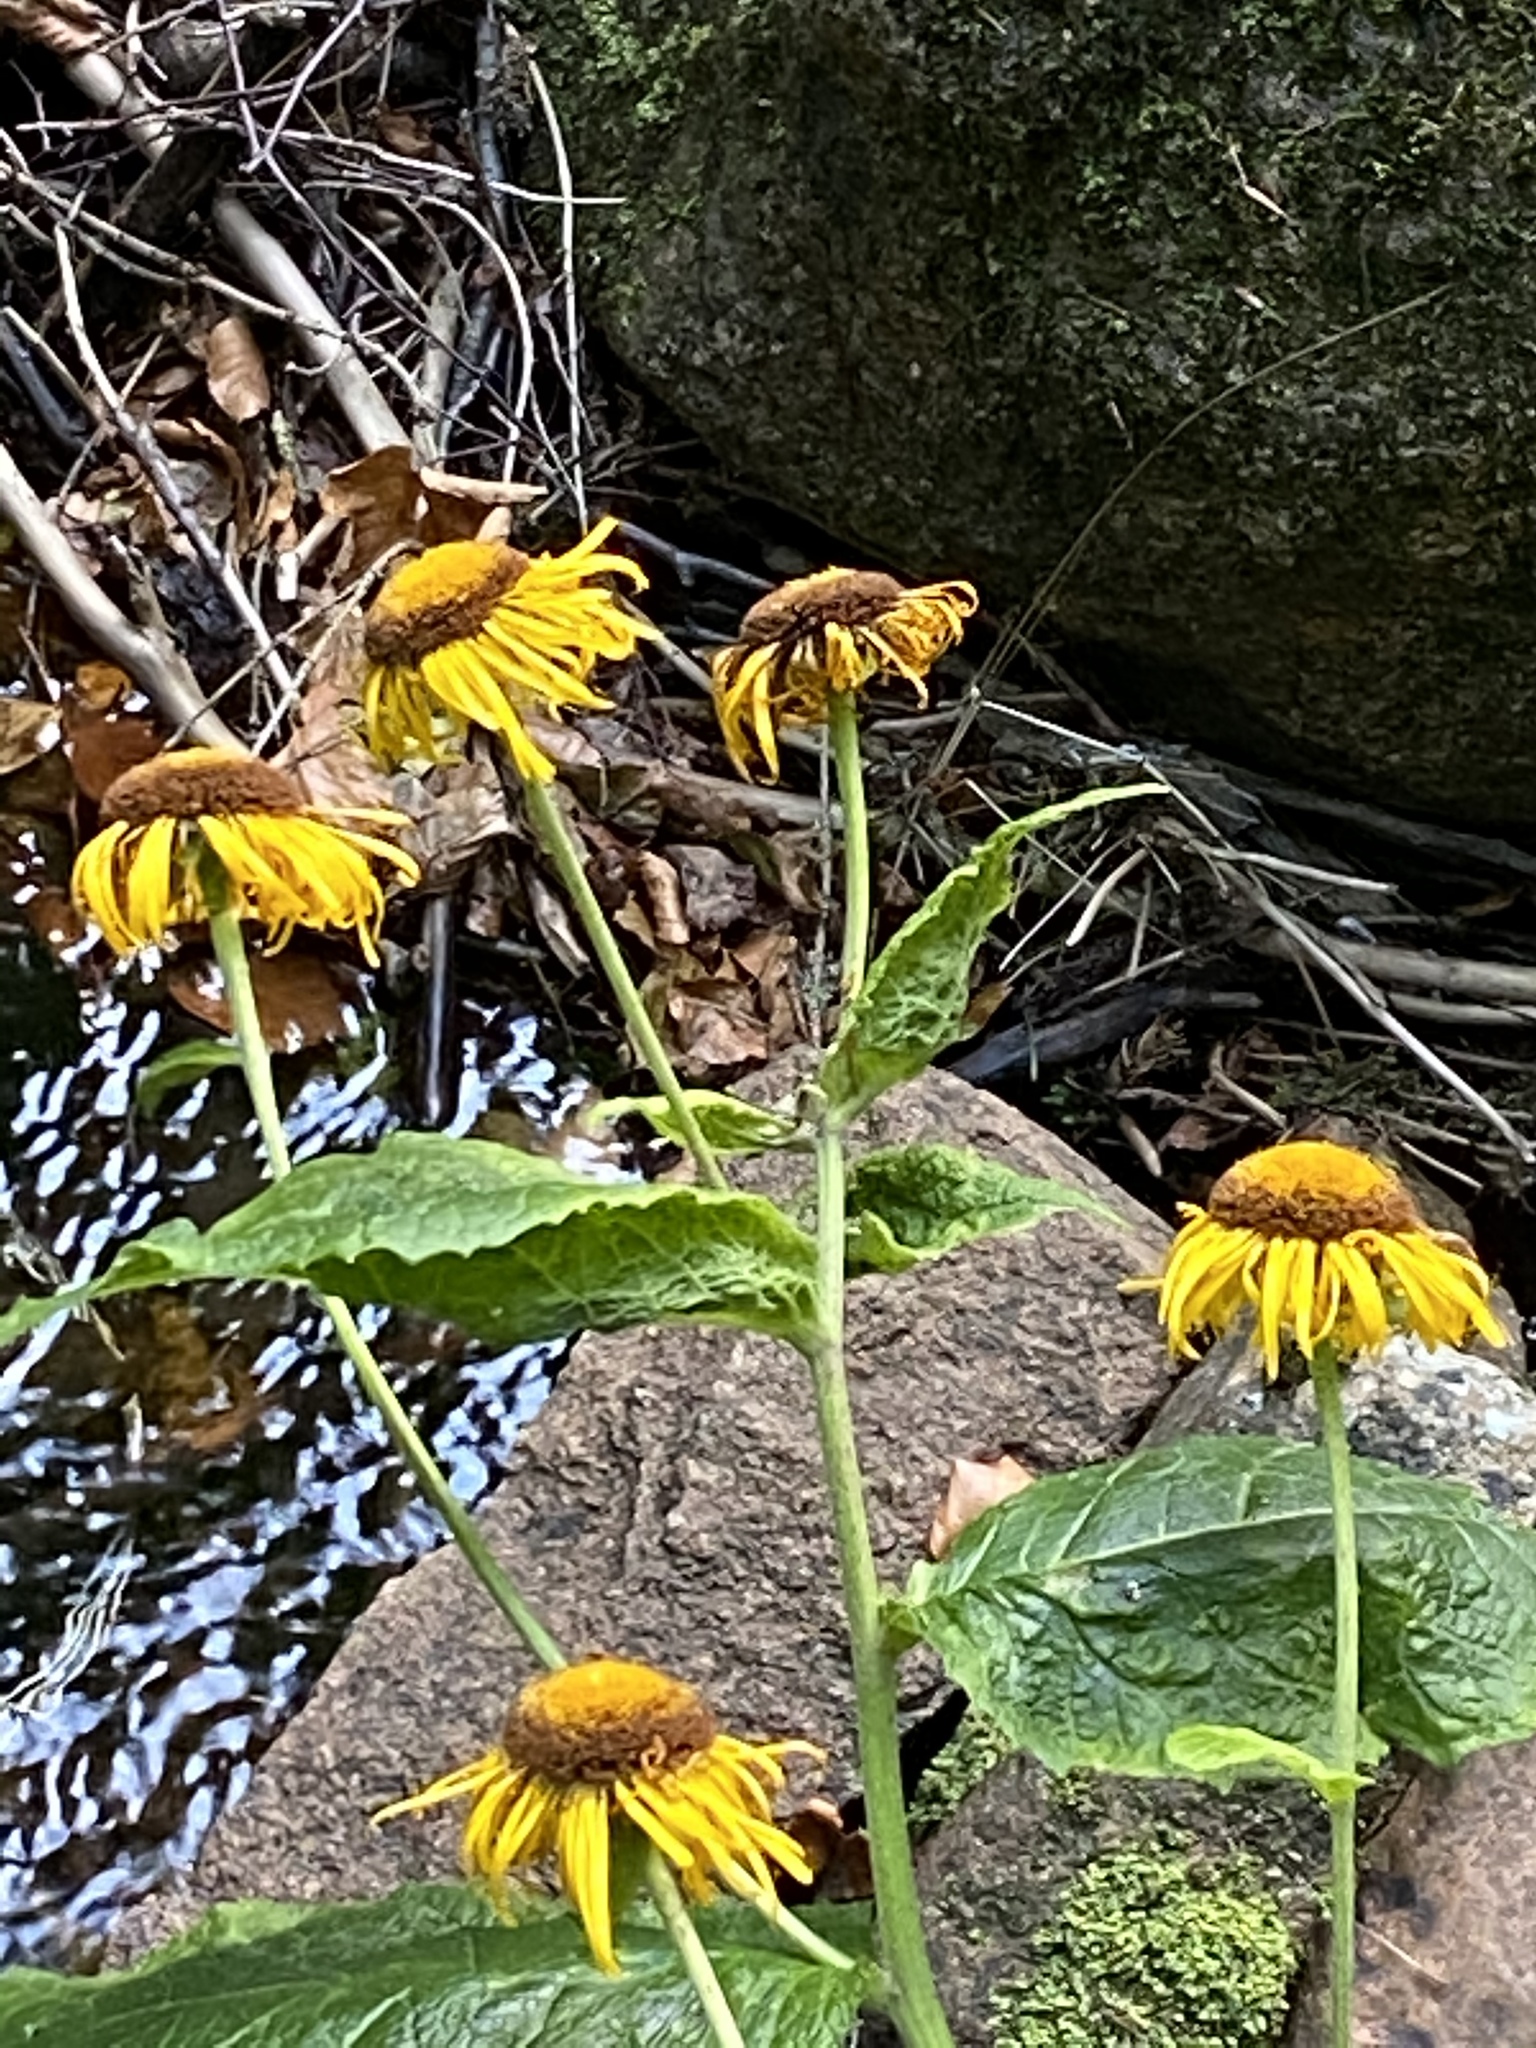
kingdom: Plantae
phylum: Tracheophyta
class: Magnoliopsida
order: Asterales
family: Asteraceae
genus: Telekia
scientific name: Telekia speciosa
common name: Yellow oxeye
